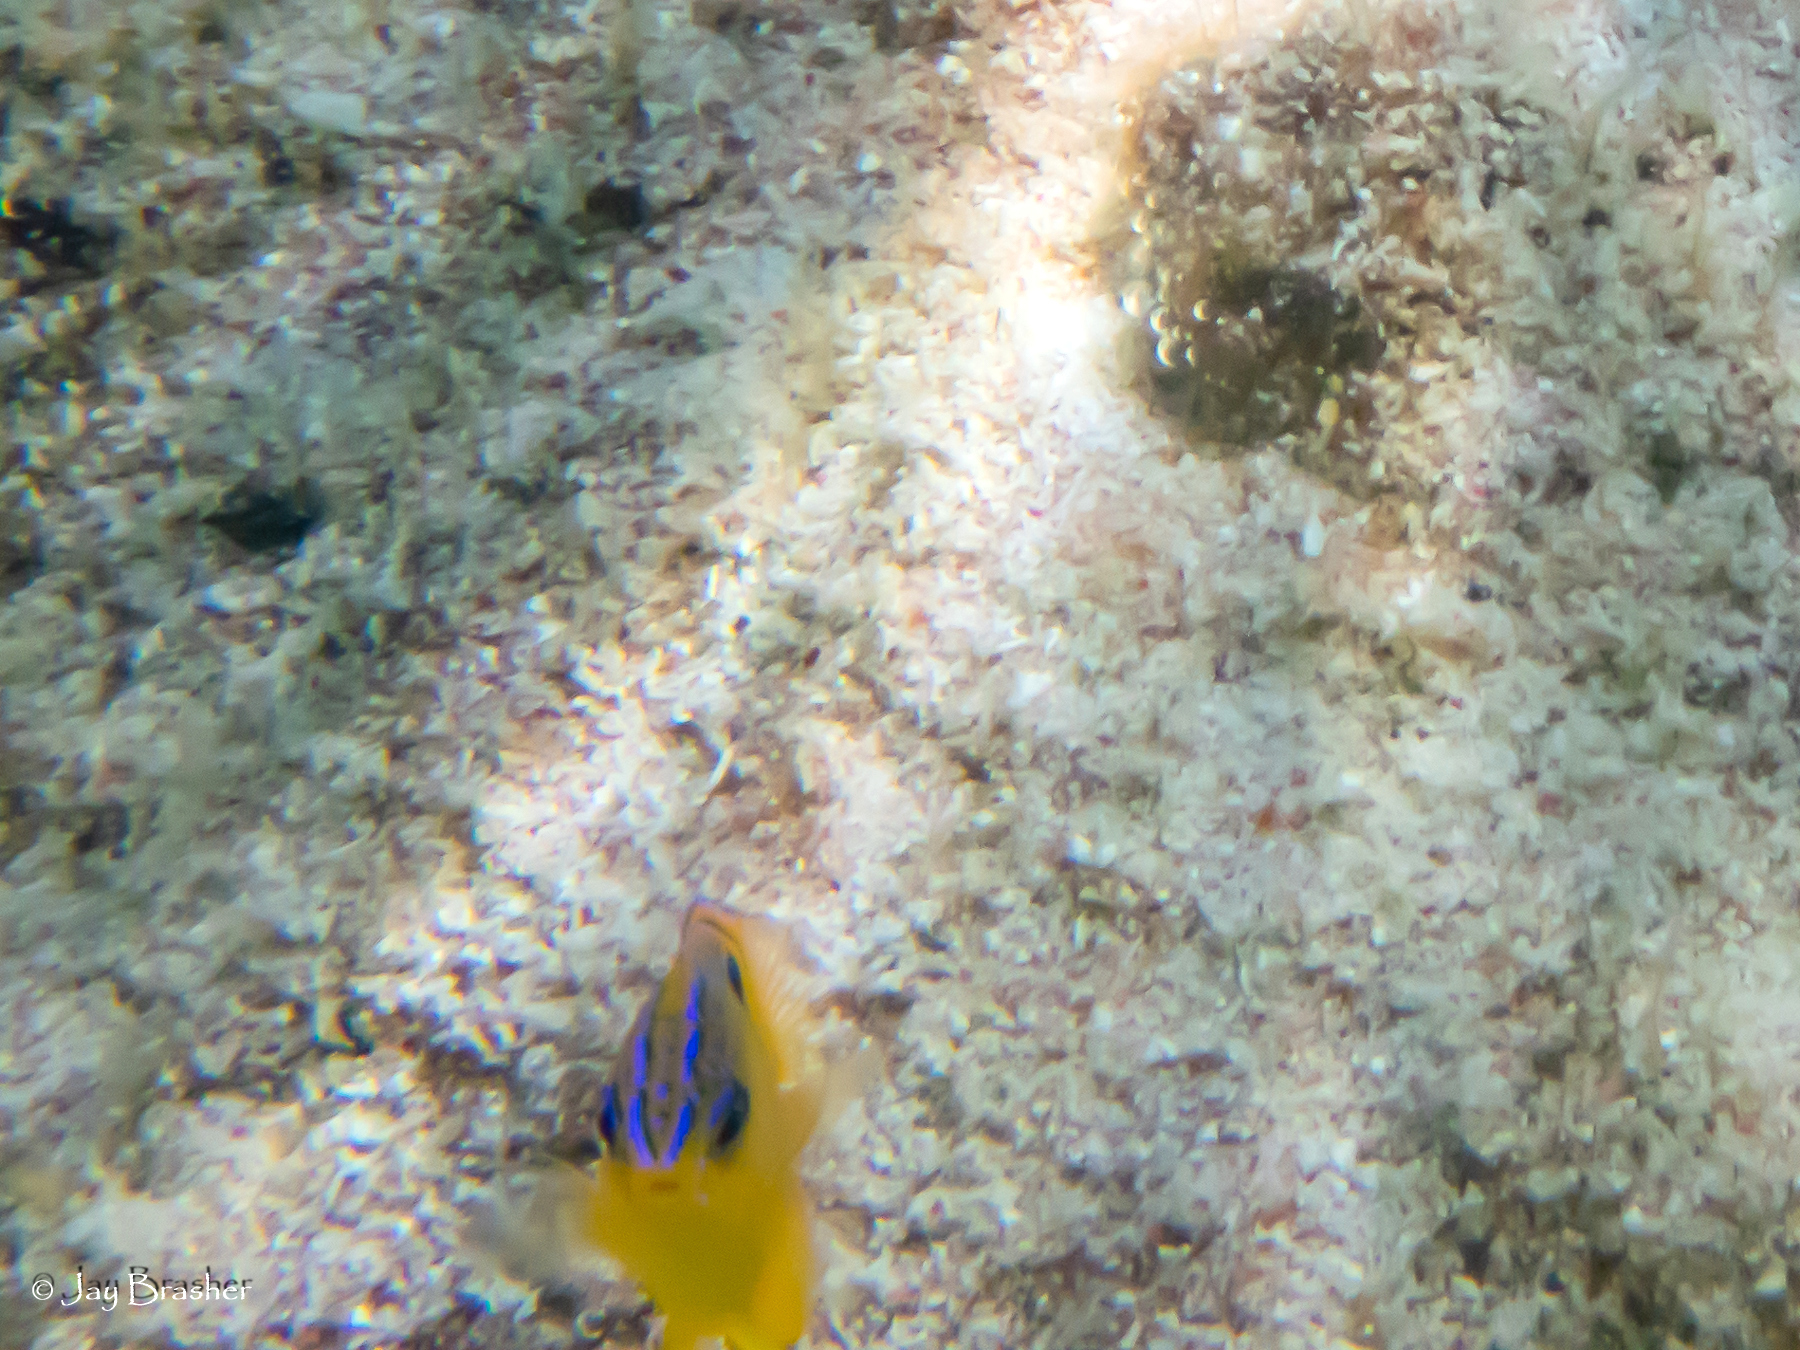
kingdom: Animalia
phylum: Chordata
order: Perciformes
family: Pomacentridae
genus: Stegastes
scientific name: Stegastes diencaeus
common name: Longfin damselfish
